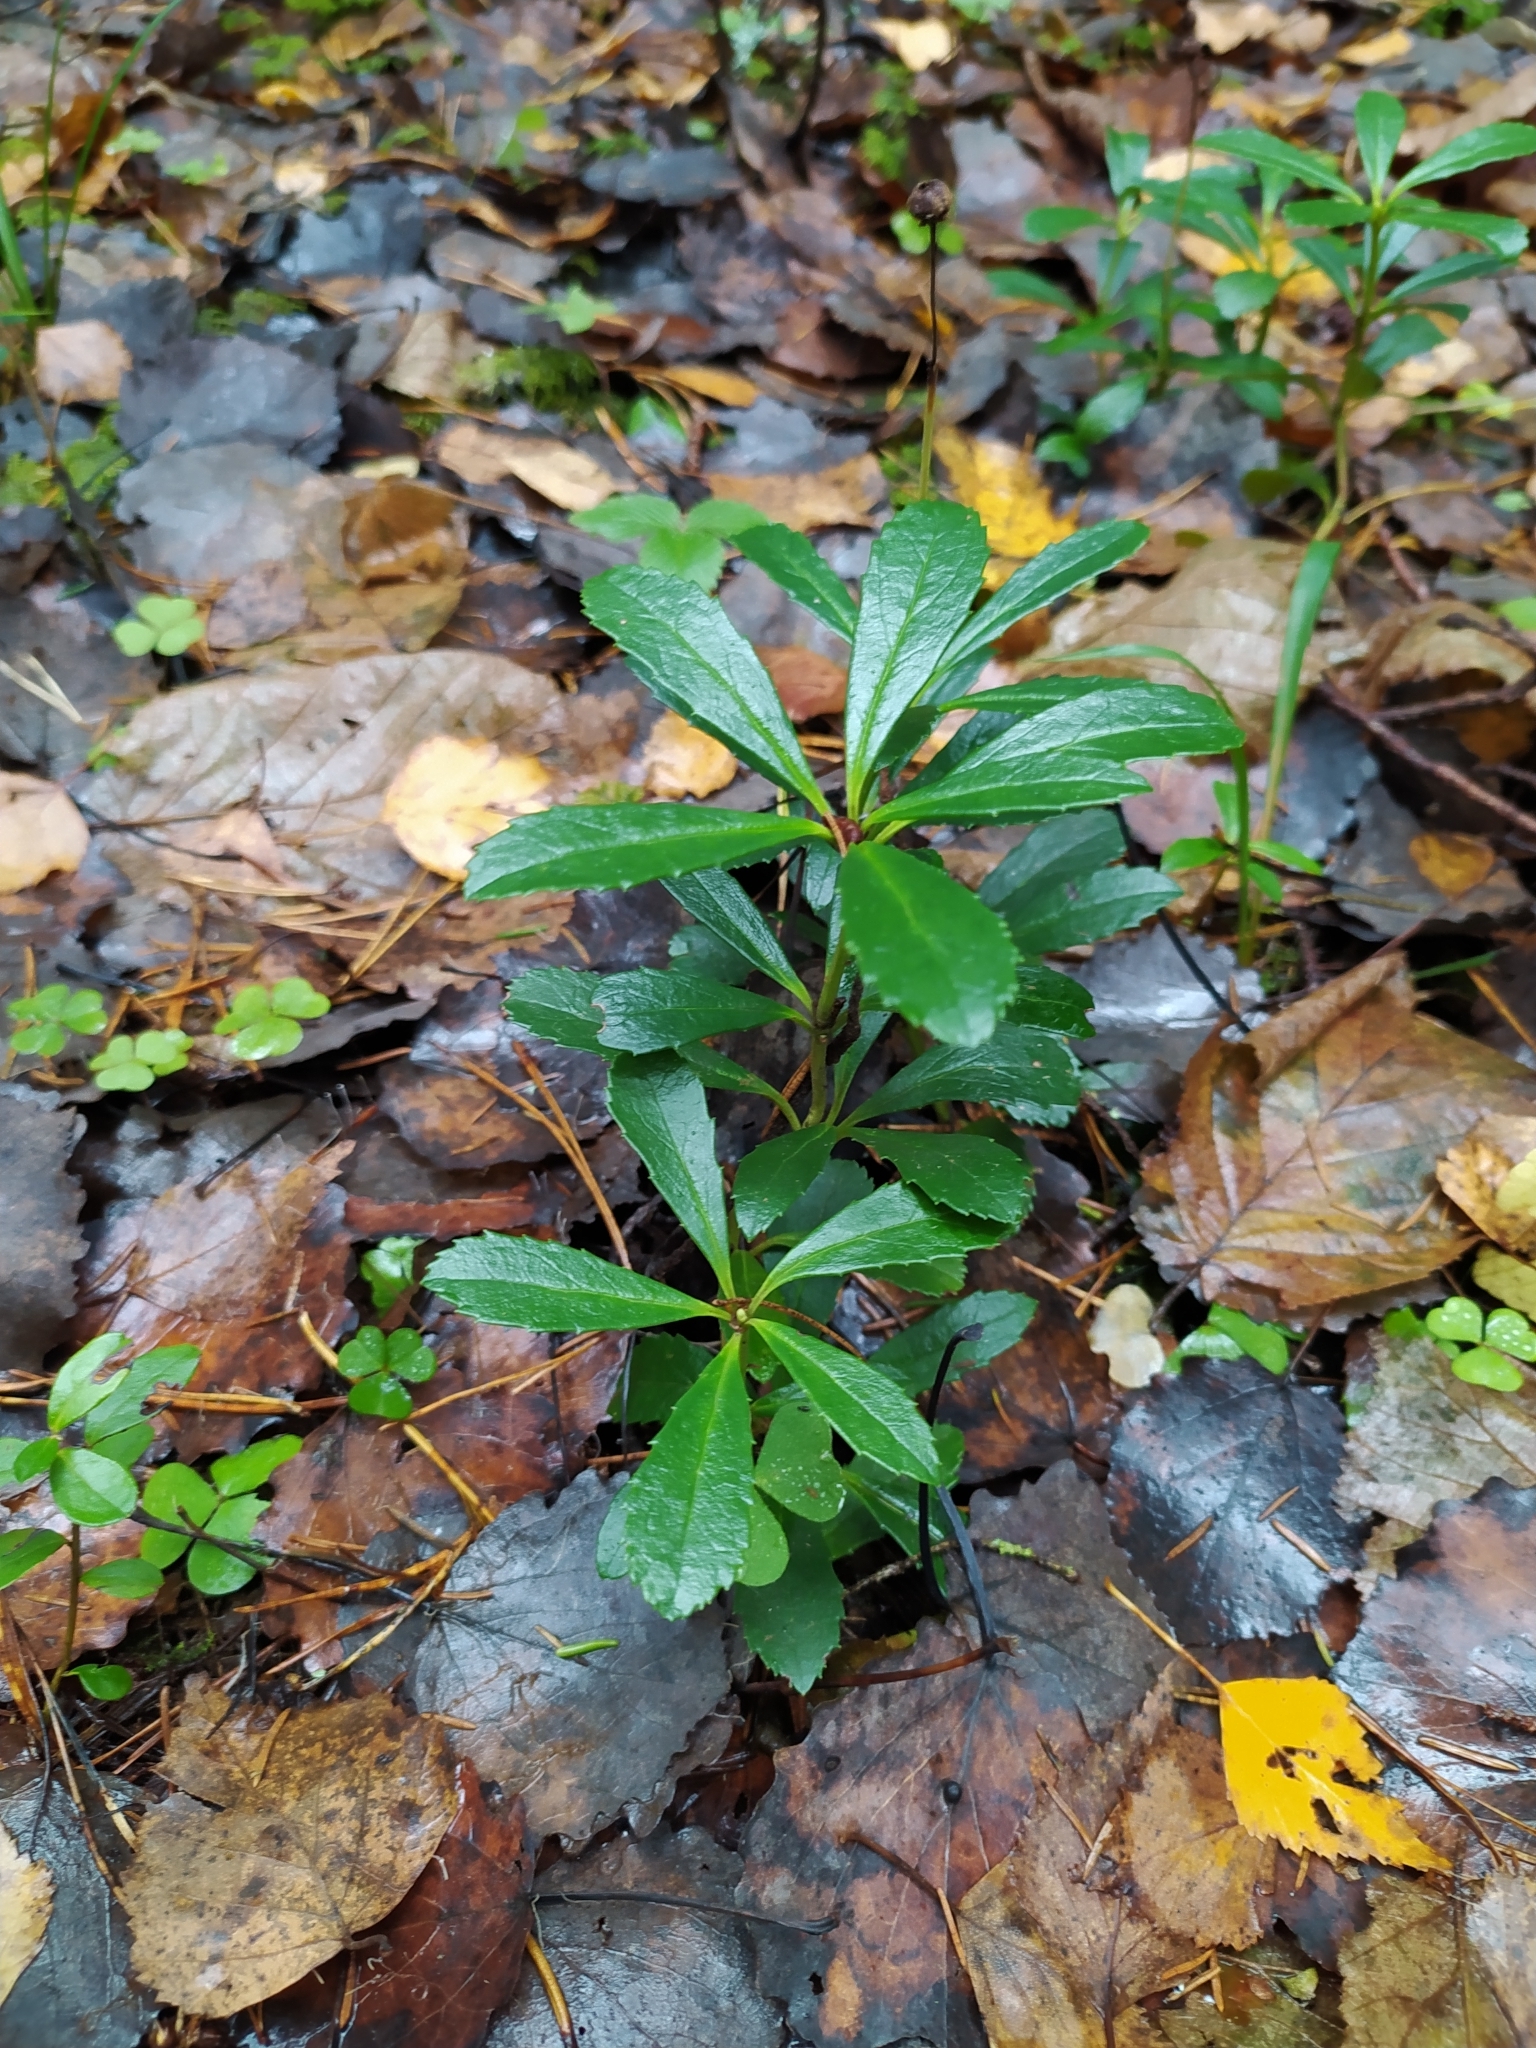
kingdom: Plantae
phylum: Tracheophyta
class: Magnoliopsida
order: Ericales
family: Ericaceae
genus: Chimaphila
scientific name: Chimaphila umbellata
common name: Pipsissewa
